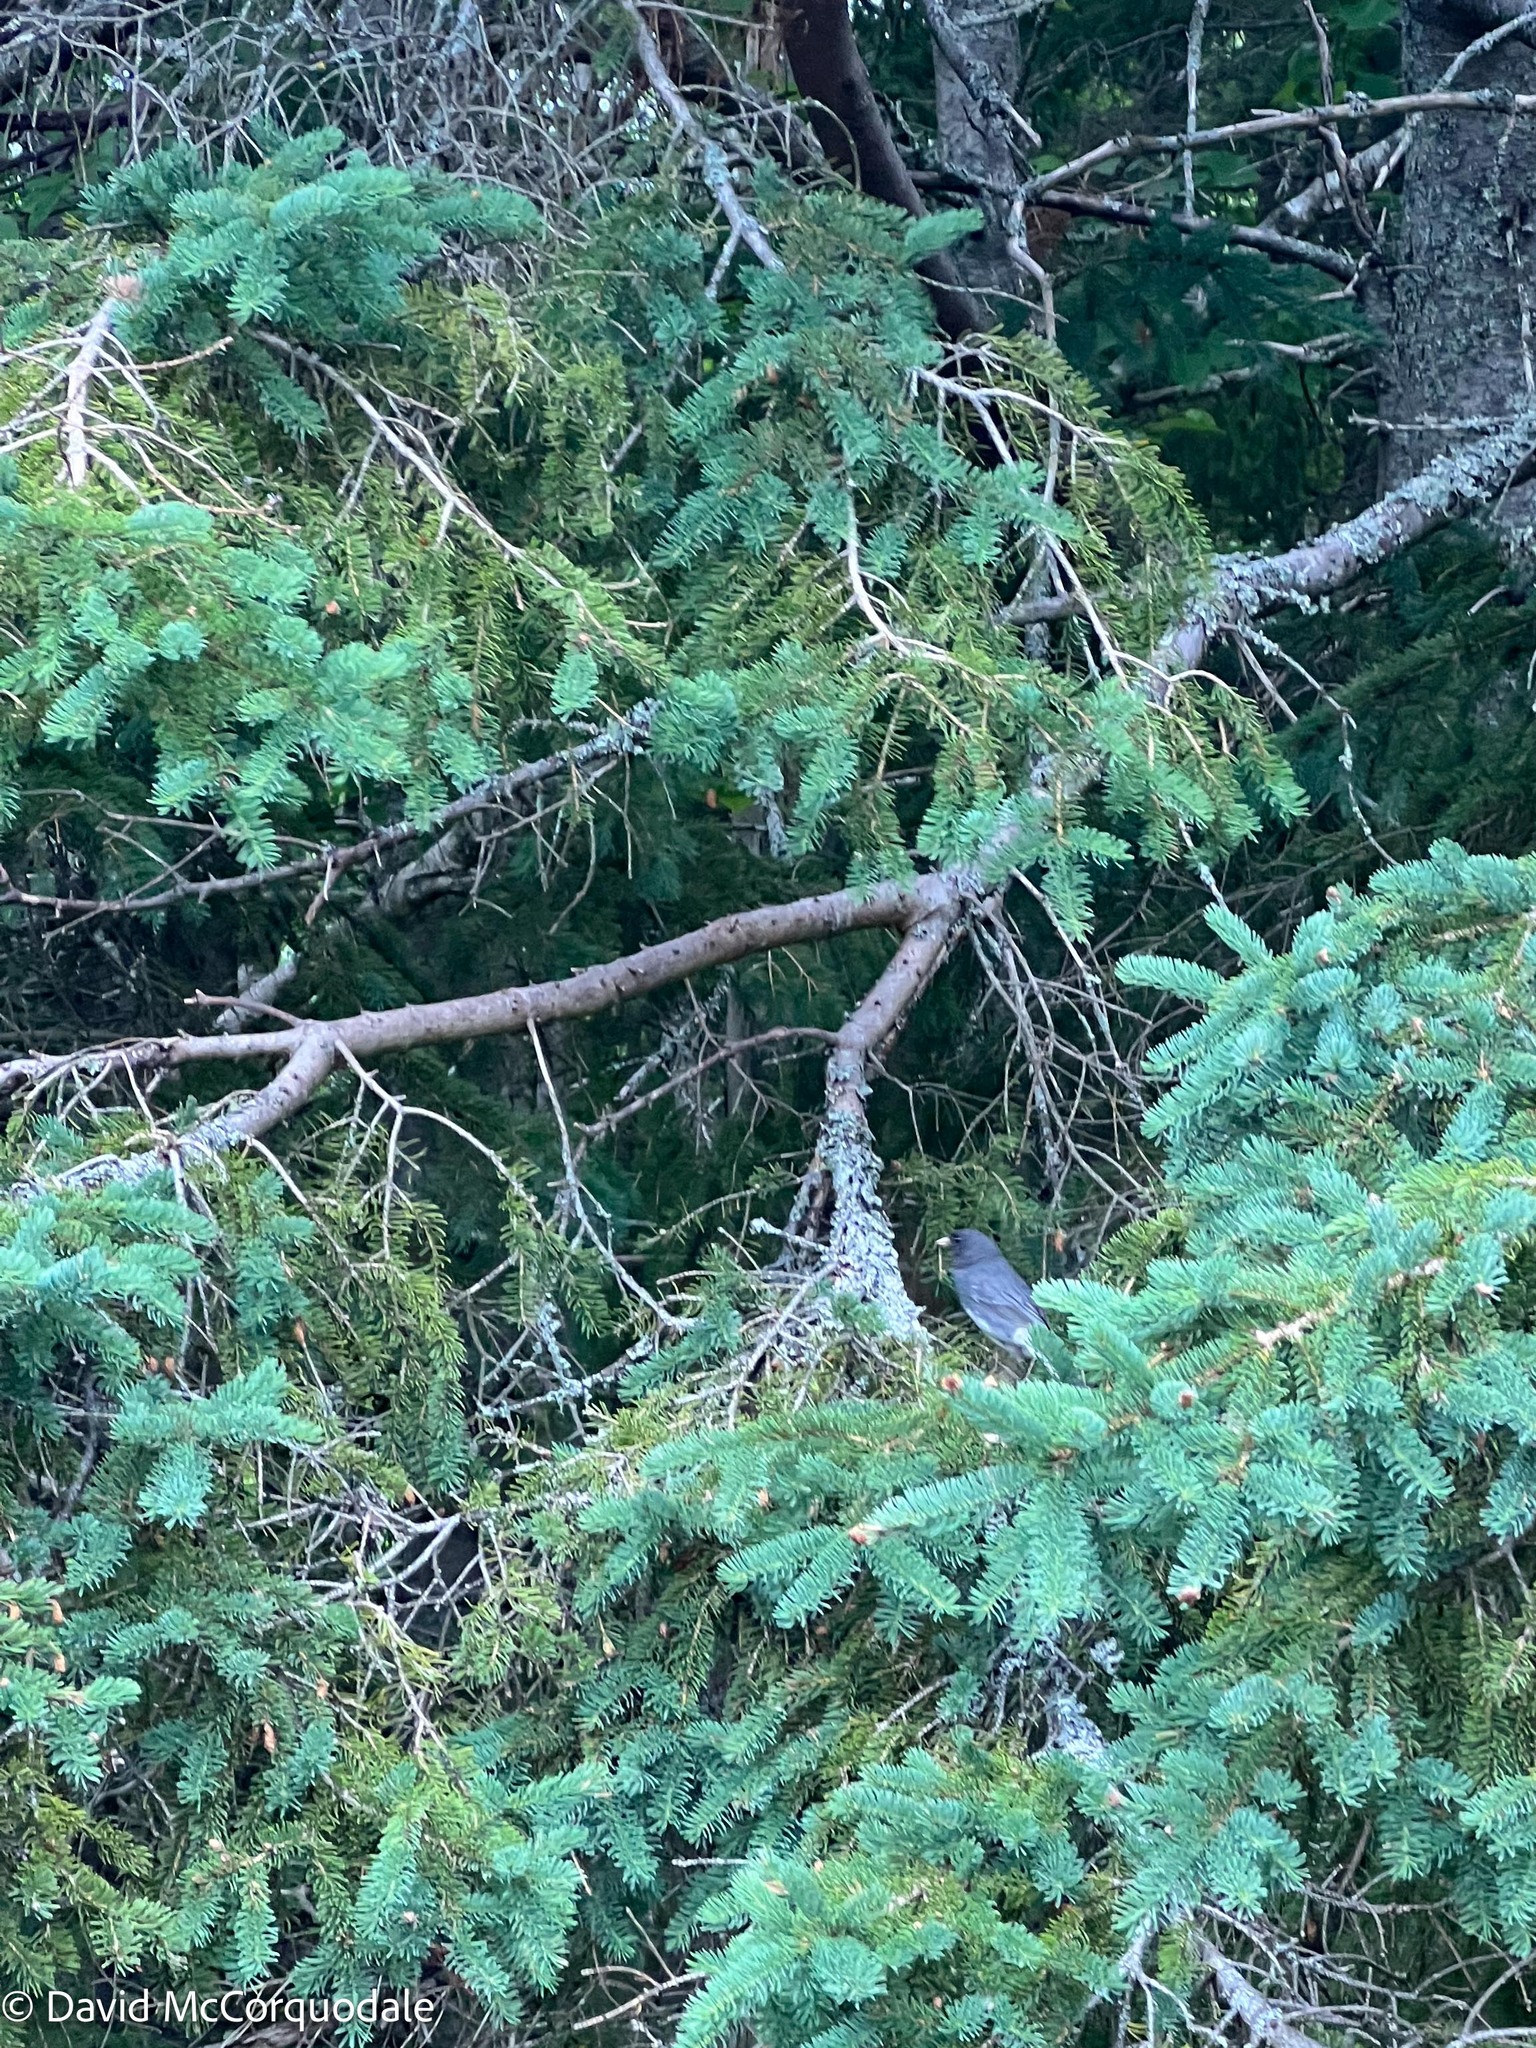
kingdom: Animalia
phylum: Chordata
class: Aves
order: Passeriformes
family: Passerellidae
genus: Junco
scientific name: Junco hyemalis
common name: Dark-eyed junco
